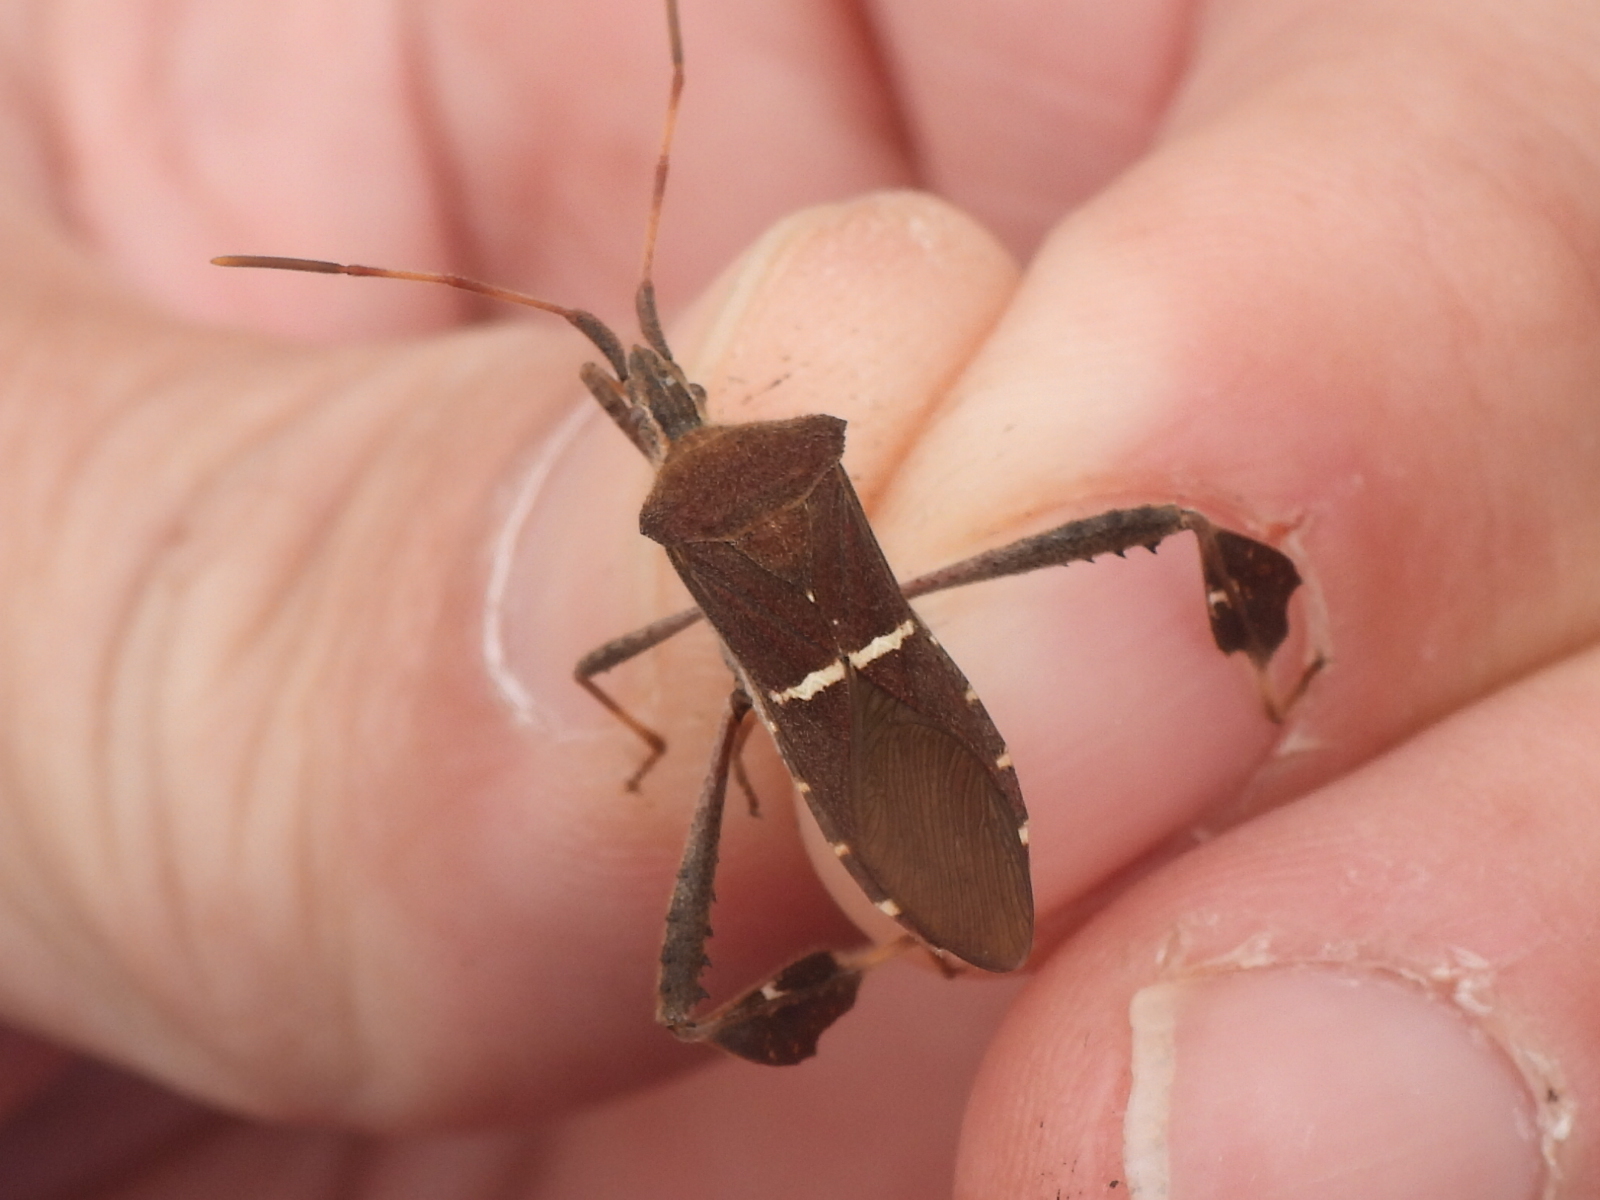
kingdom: Animalia
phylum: Arthropoda
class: Insecta
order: Hemiptera
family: Coreidae
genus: Leptoglossus
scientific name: Leptoglossus phyllopus
